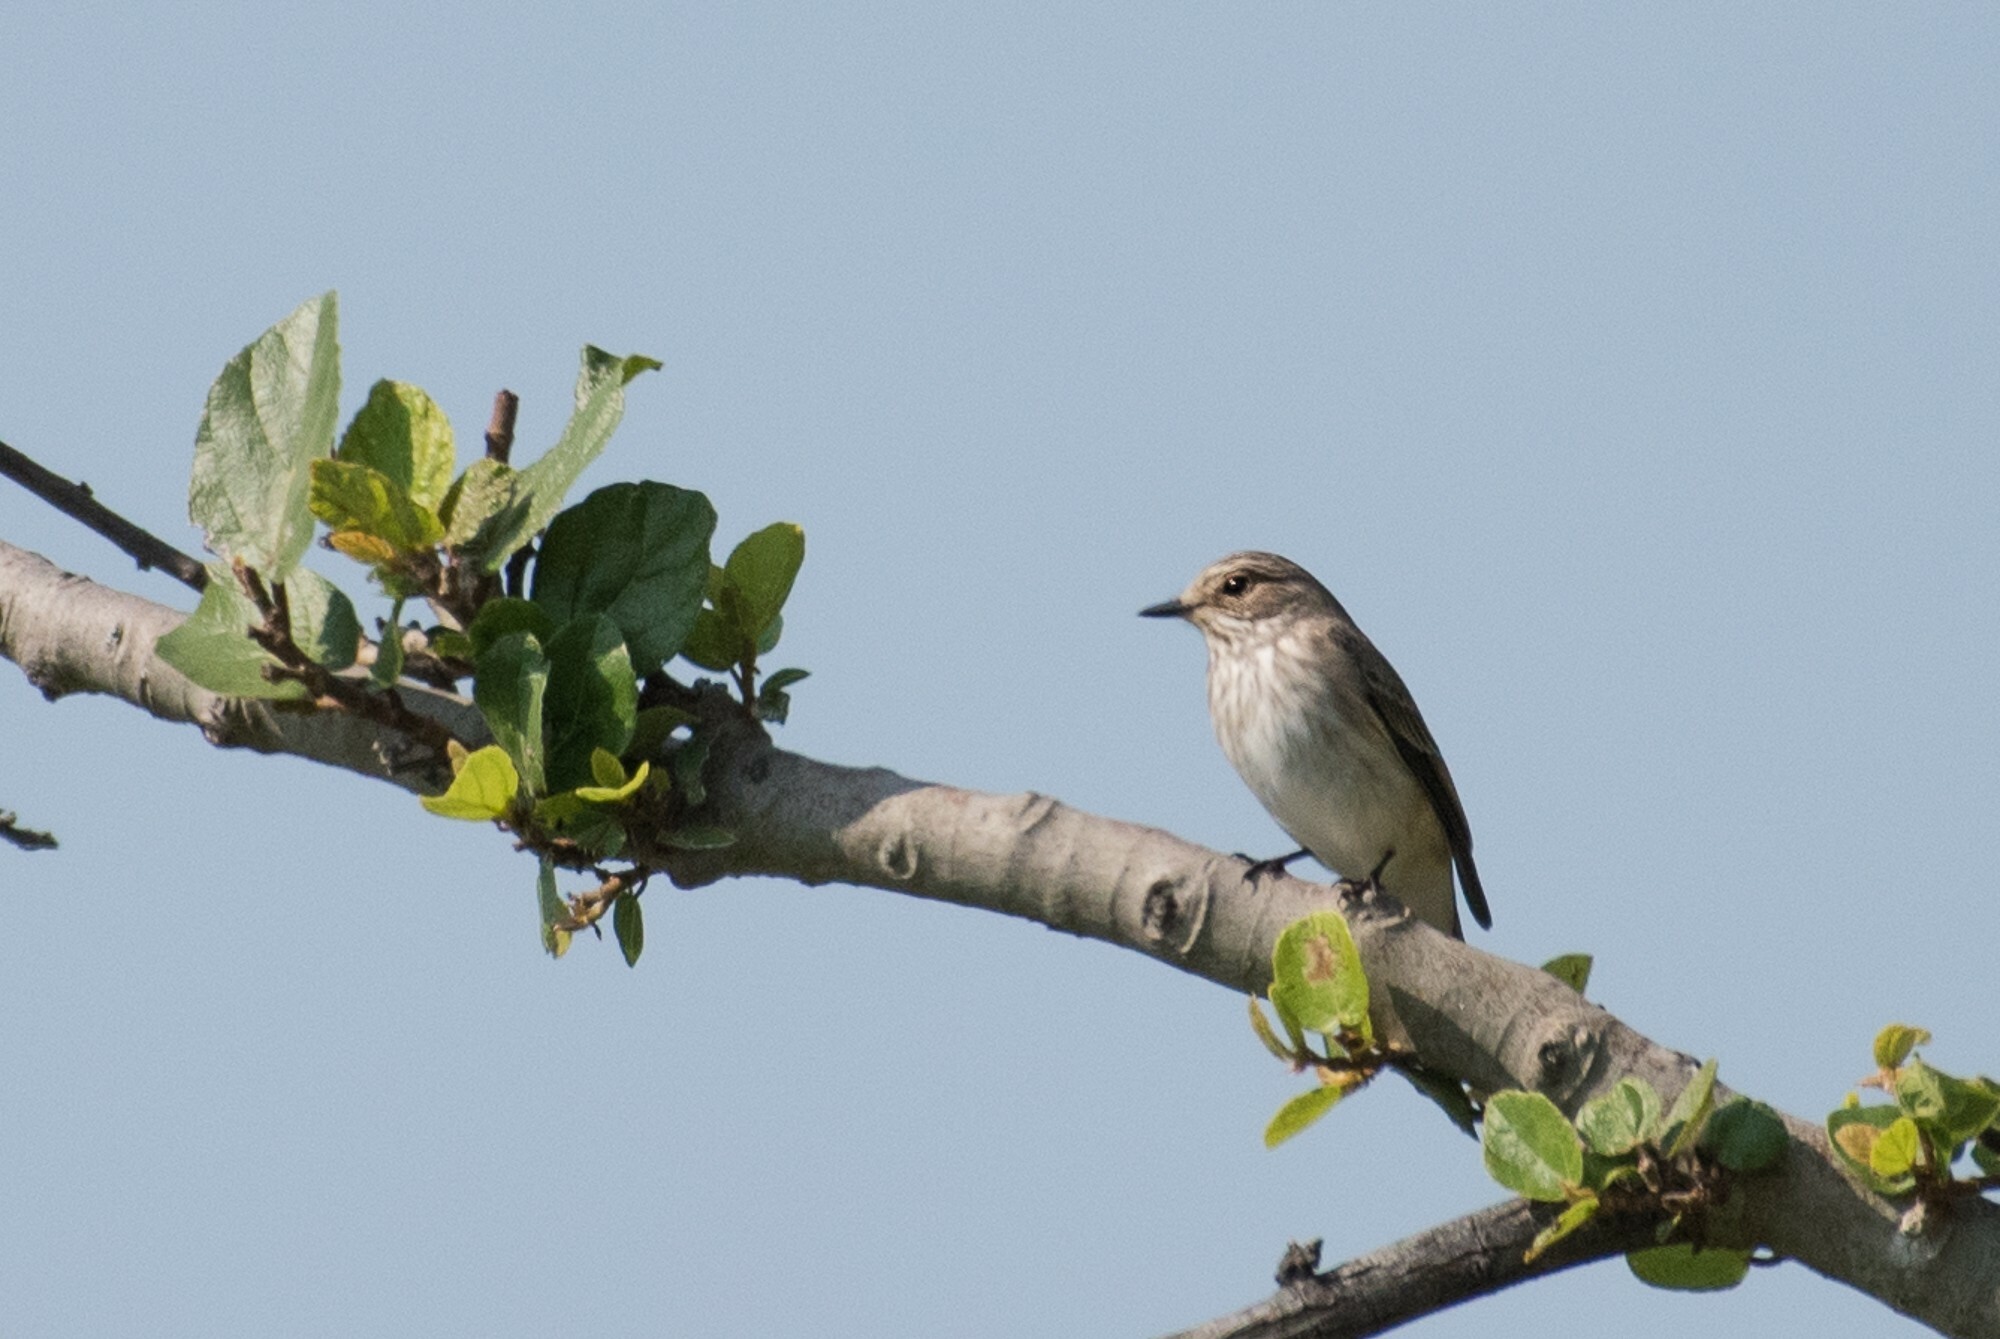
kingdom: Animalia
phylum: Chordata
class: Aves
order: Passeriformes
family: Muscicapidae
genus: Muscicapa
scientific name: Muscicapa striata
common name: Spotted flycatcher
